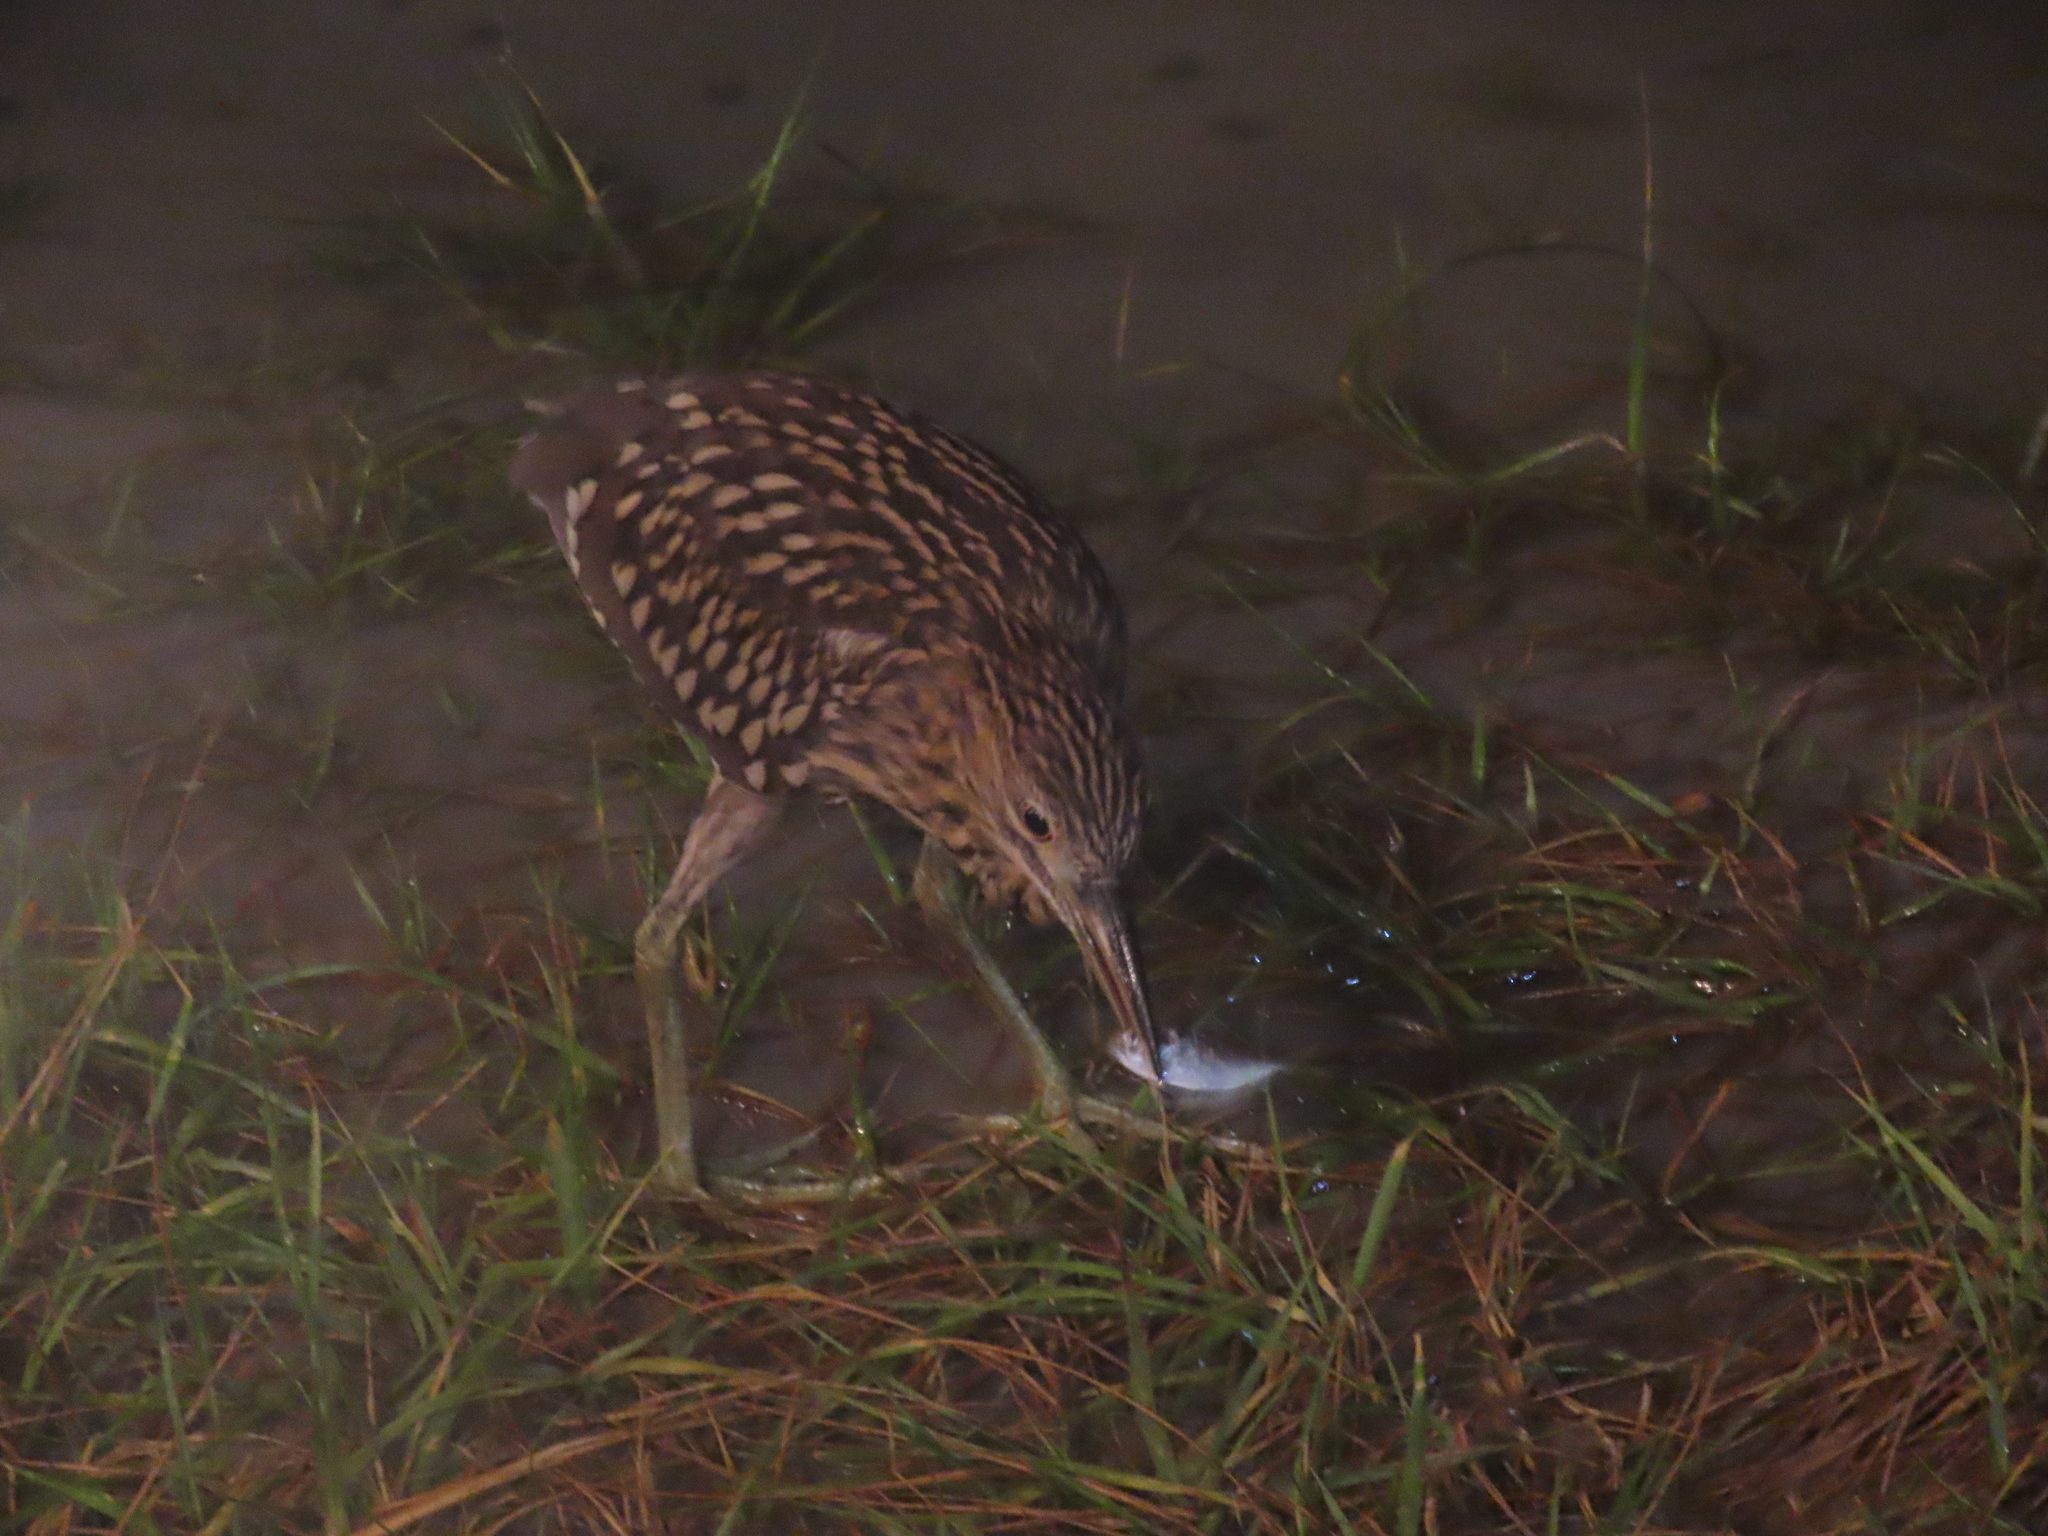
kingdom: Animalia
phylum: Chordata
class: Aves
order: Pelecaniformes
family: Ardeidae
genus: Nycticorax
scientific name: Nycticorax nycticorax
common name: Black-crowned night heron
